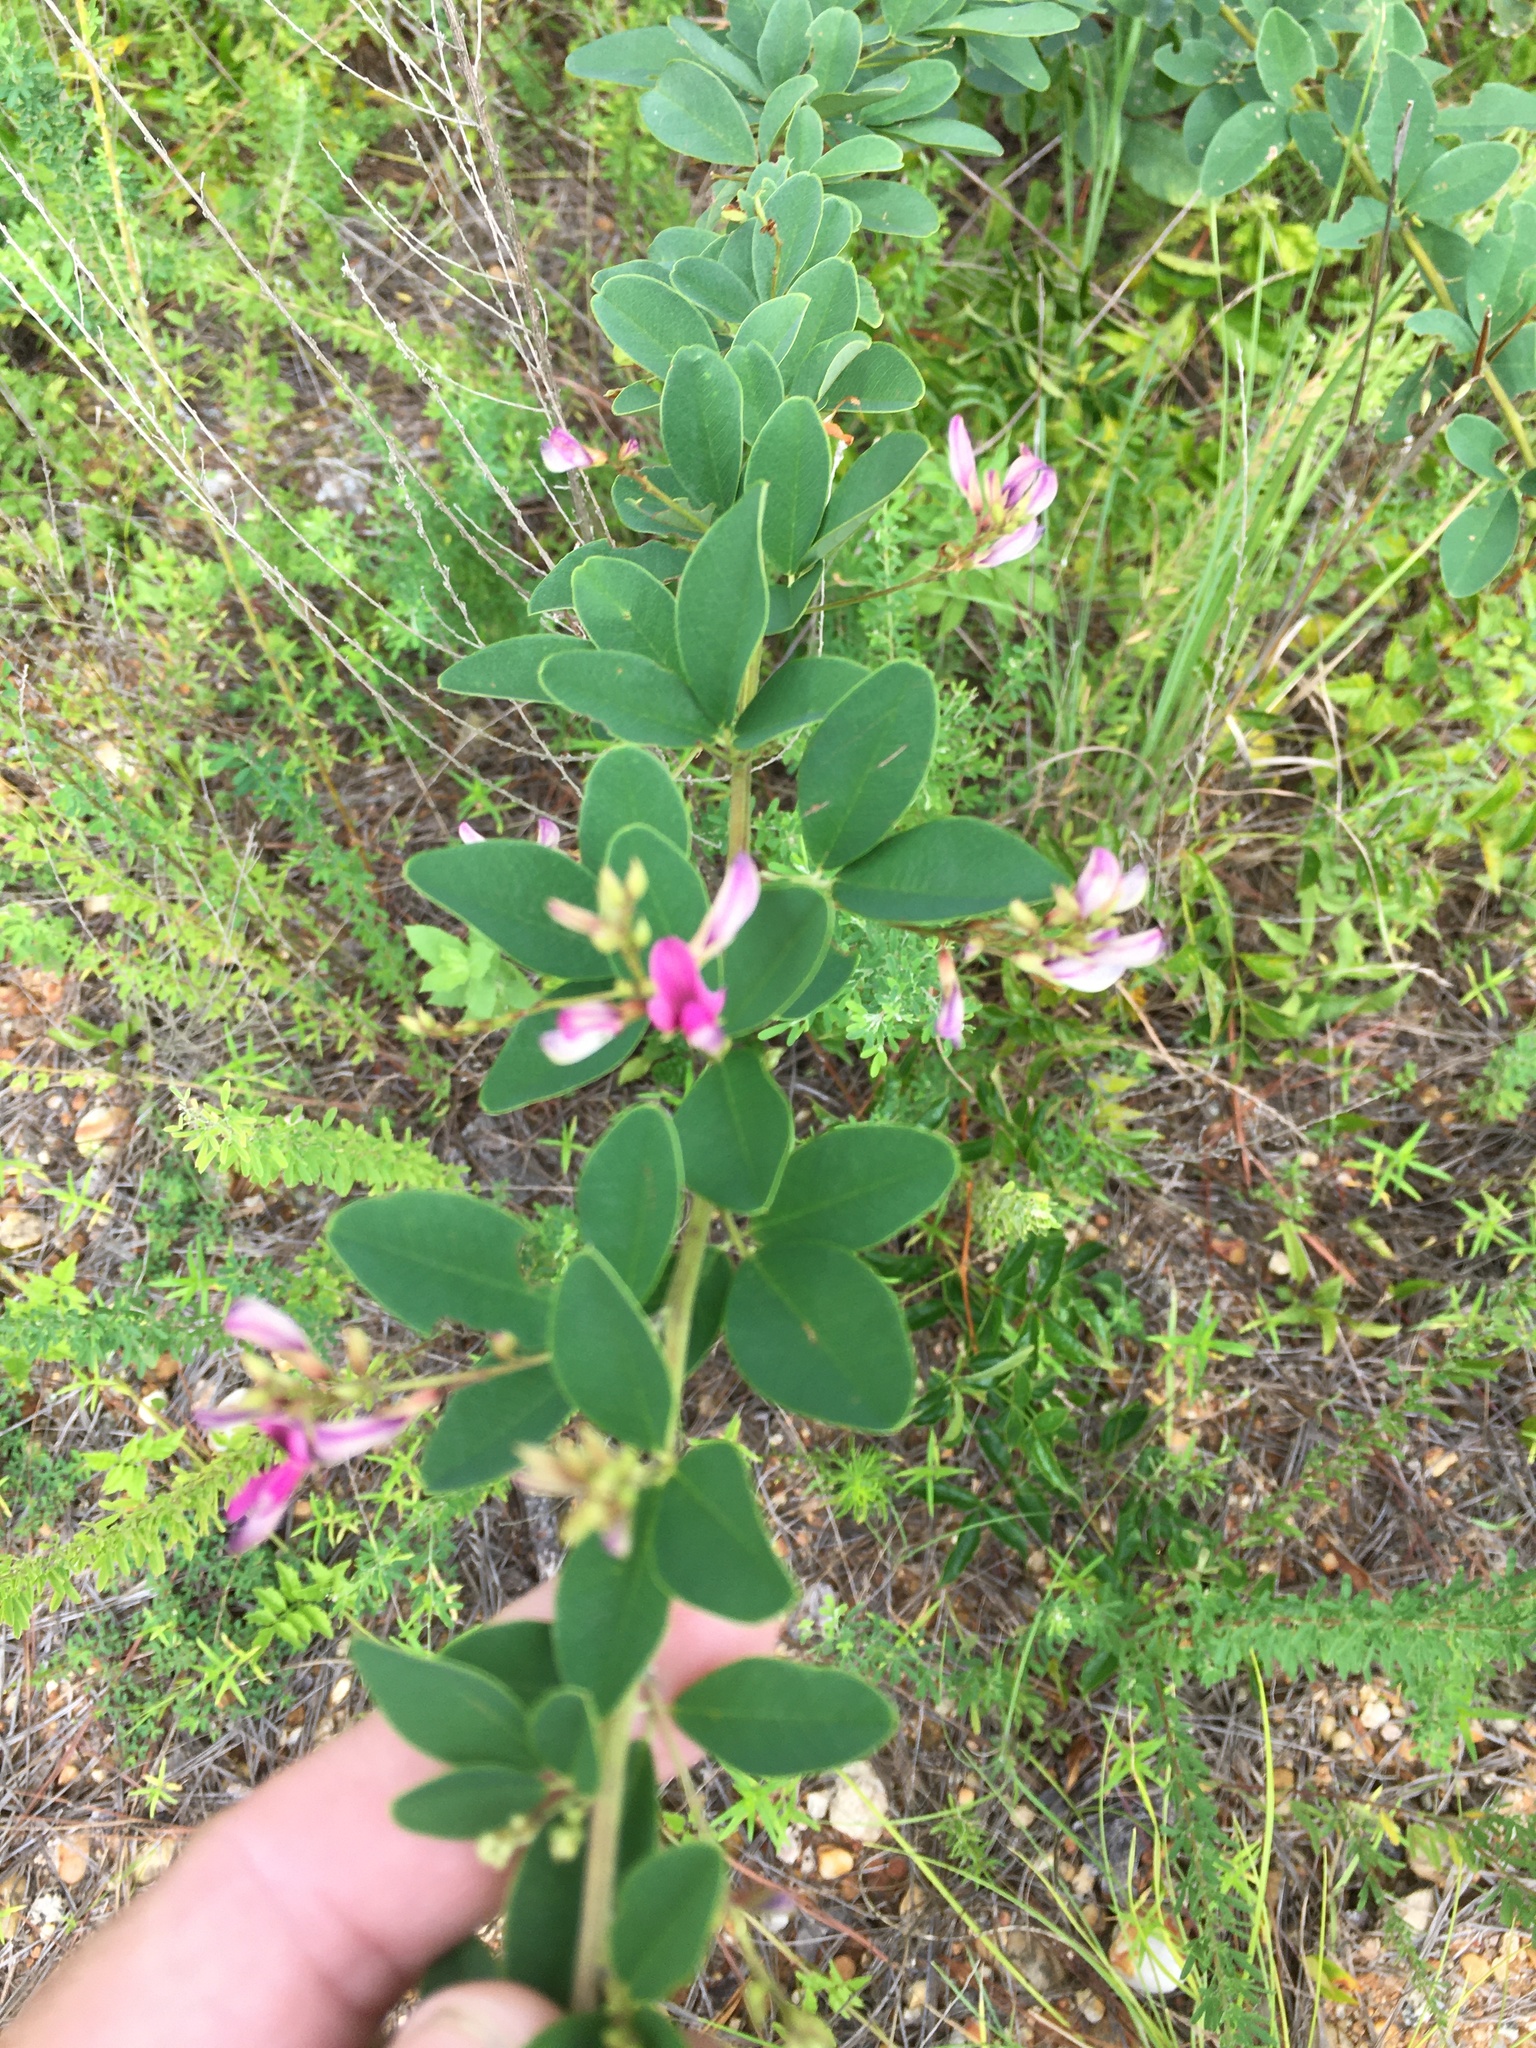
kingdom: Plantae
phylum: Tracheophyta
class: Magnoliopsida
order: Fabales
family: Fabaceae
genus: Lespedeza
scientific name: Lespedeza bicolor
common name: Shrub lespedeza
